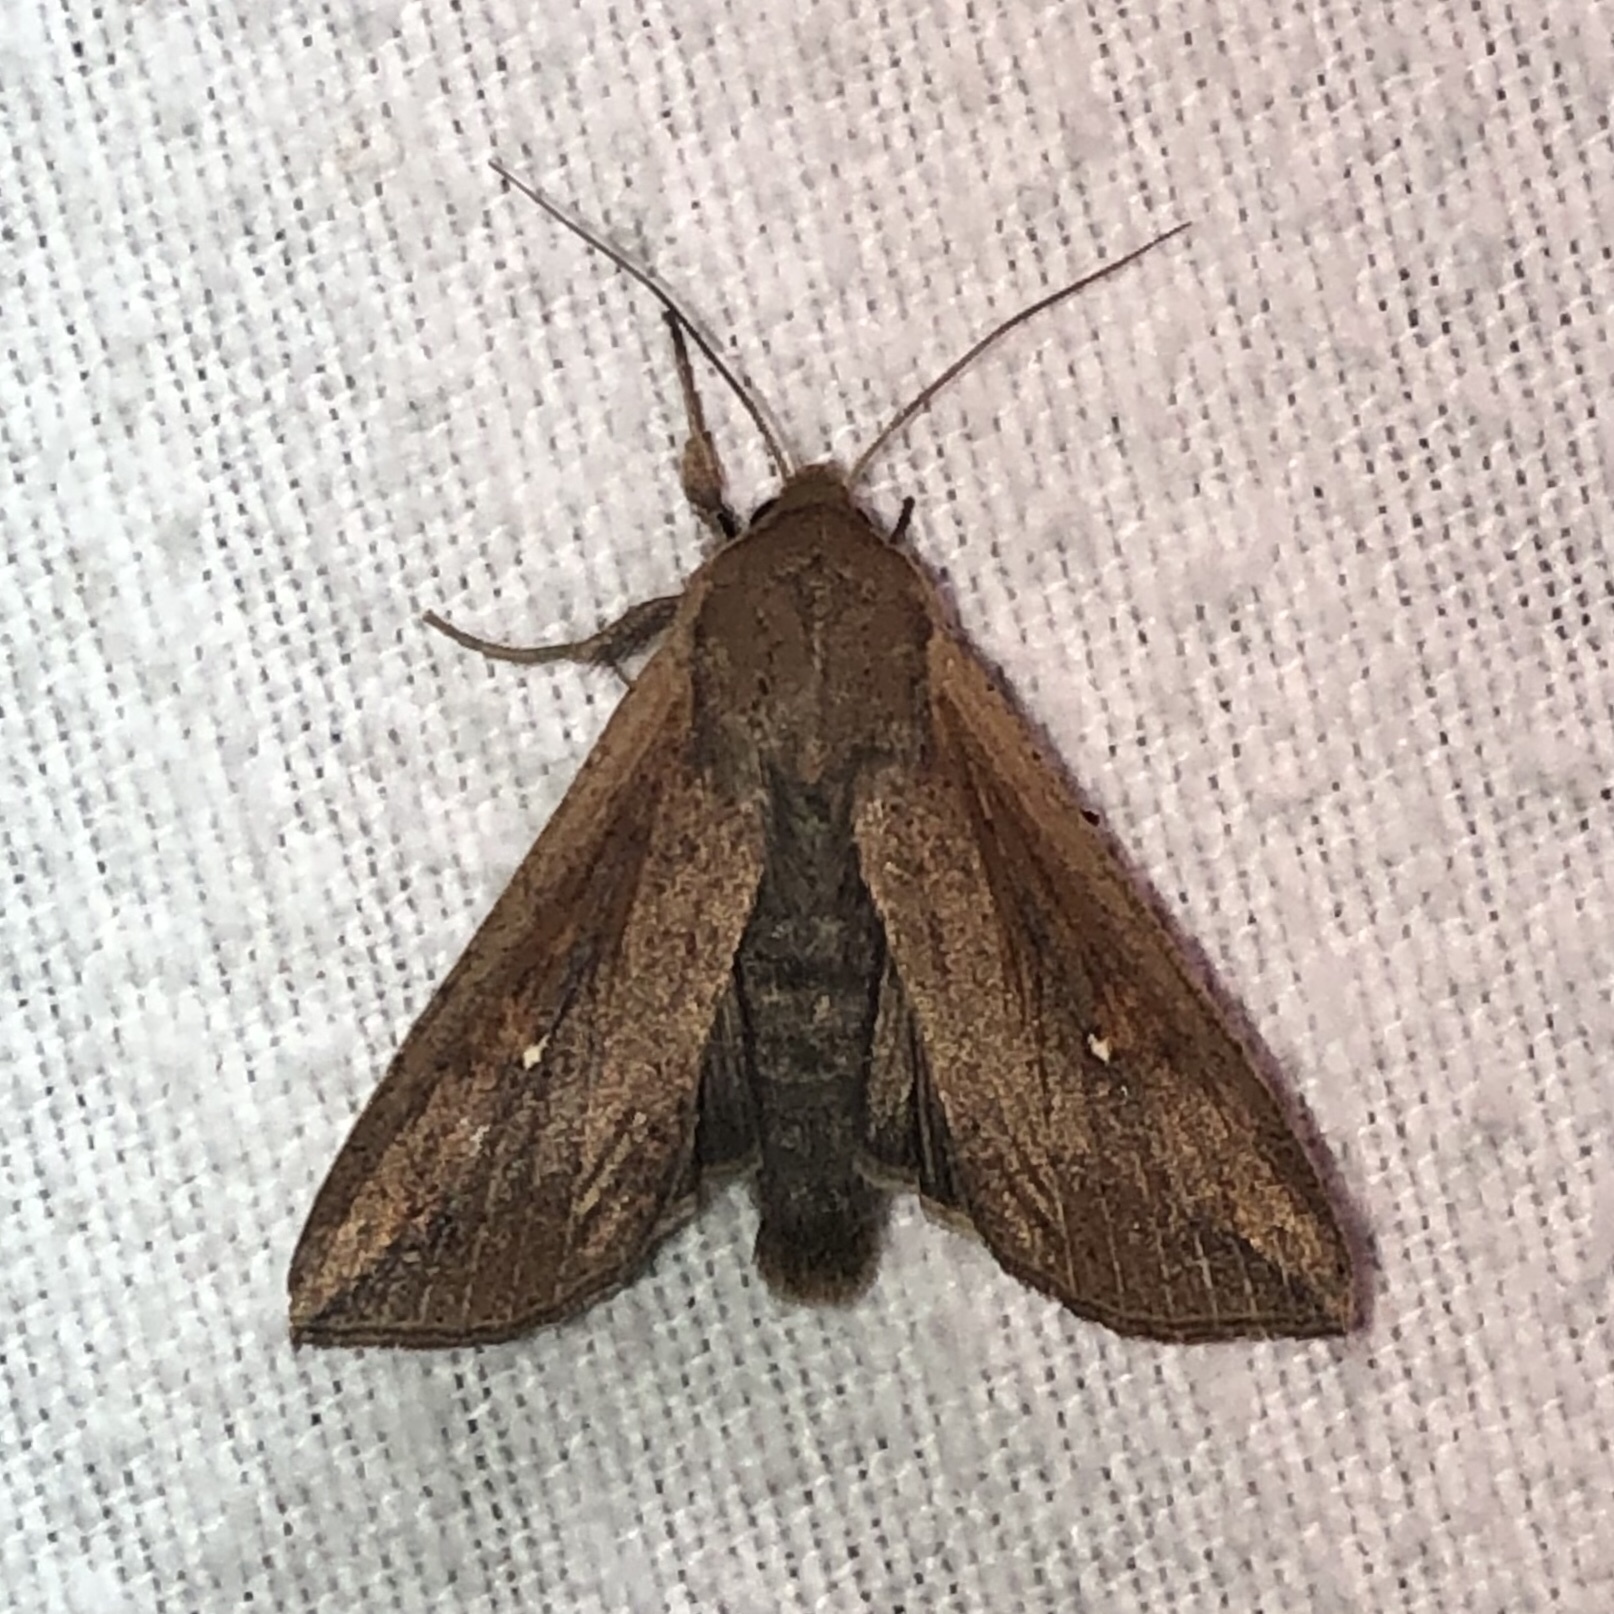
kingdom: Animalia
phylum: Arthropoda
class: Insecta
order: Lepidoptera
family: Noctuidae
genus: Mythimna
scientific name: Mythimna unipuncta
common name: White-speck
